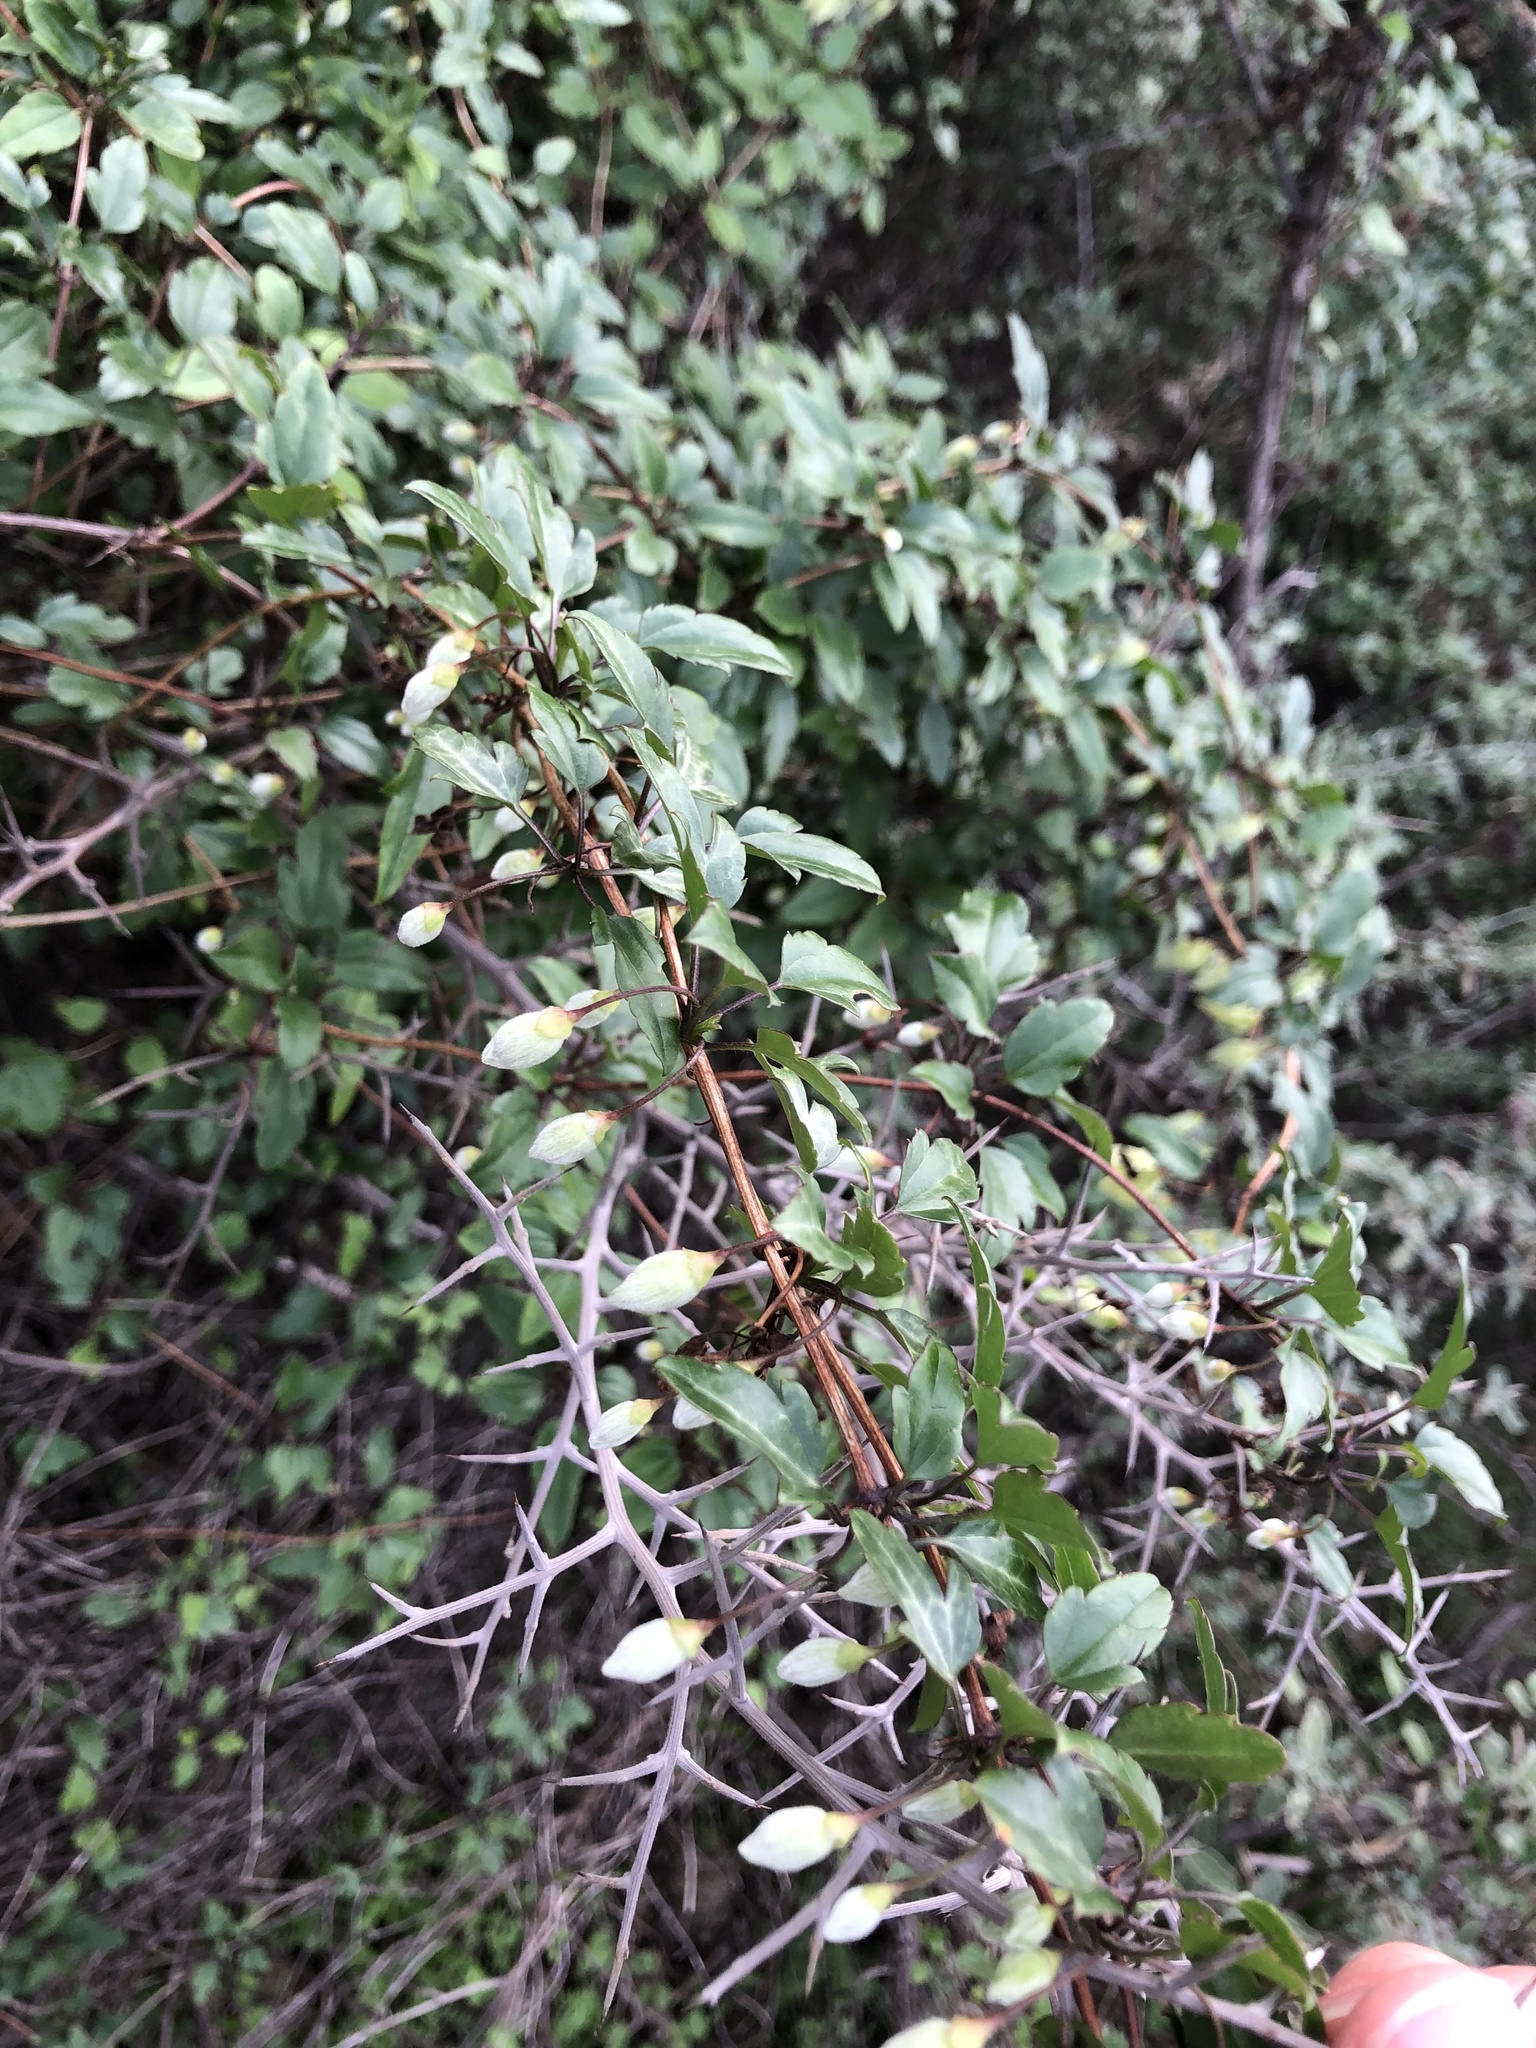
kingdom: Plantae
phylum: Tracheophyta
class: Magnoliopsida
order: Ranunculales
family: Ranunculaceae
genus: Clematis
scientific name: Clematis cirrhosa
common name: Early virgin's-bower
